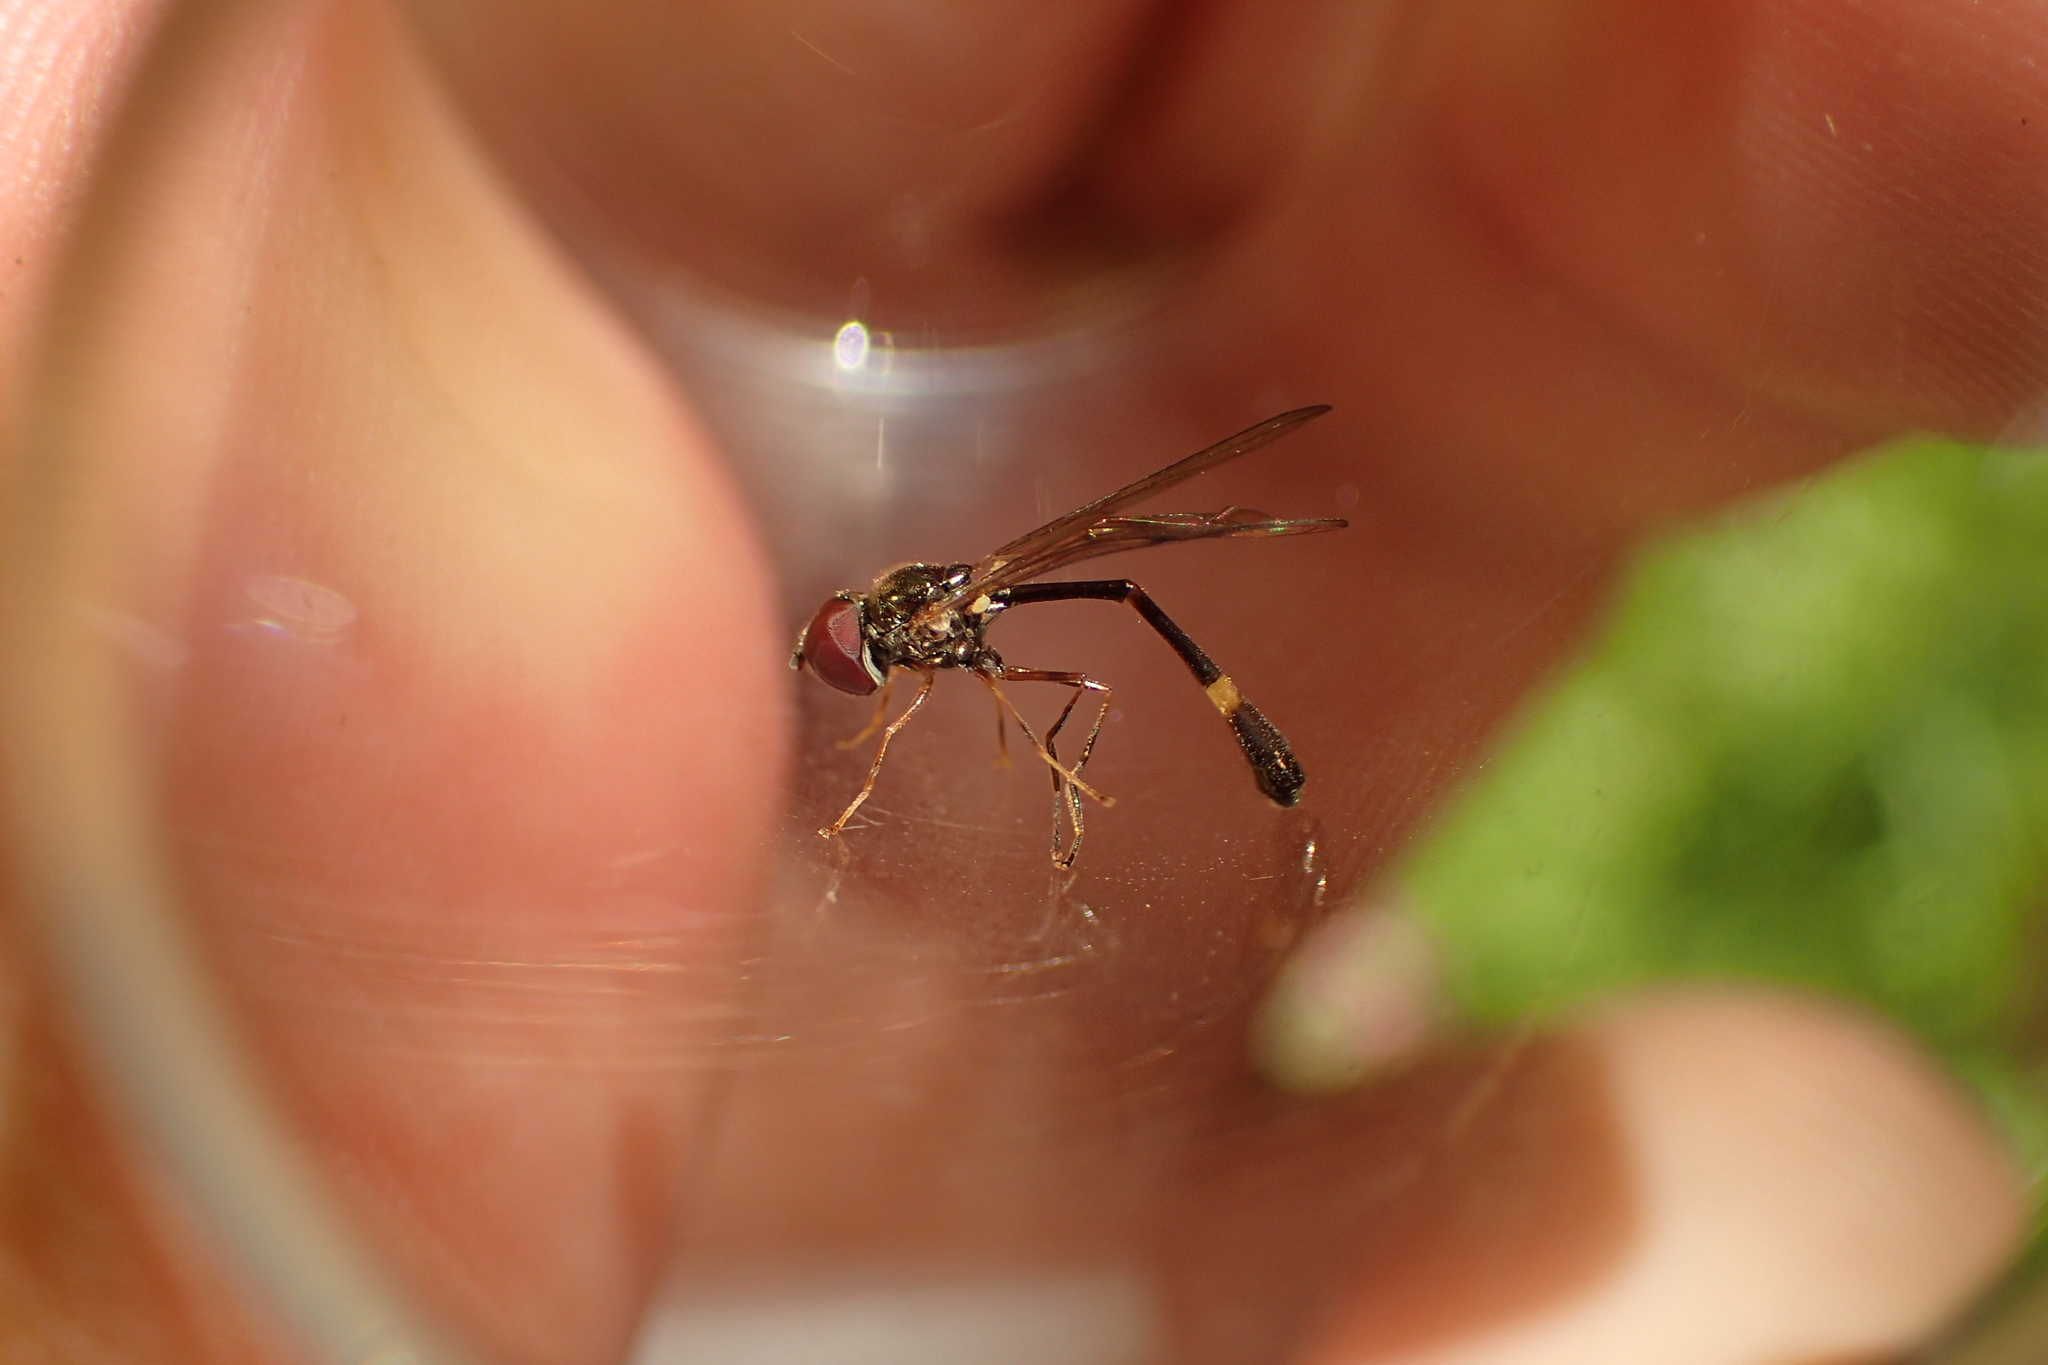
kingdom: Animalia
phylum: Arthropoda
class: Insecta
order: Diptera
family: Syrphidae
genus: Baccha
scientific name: Baccha elongata
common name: Common dainty
